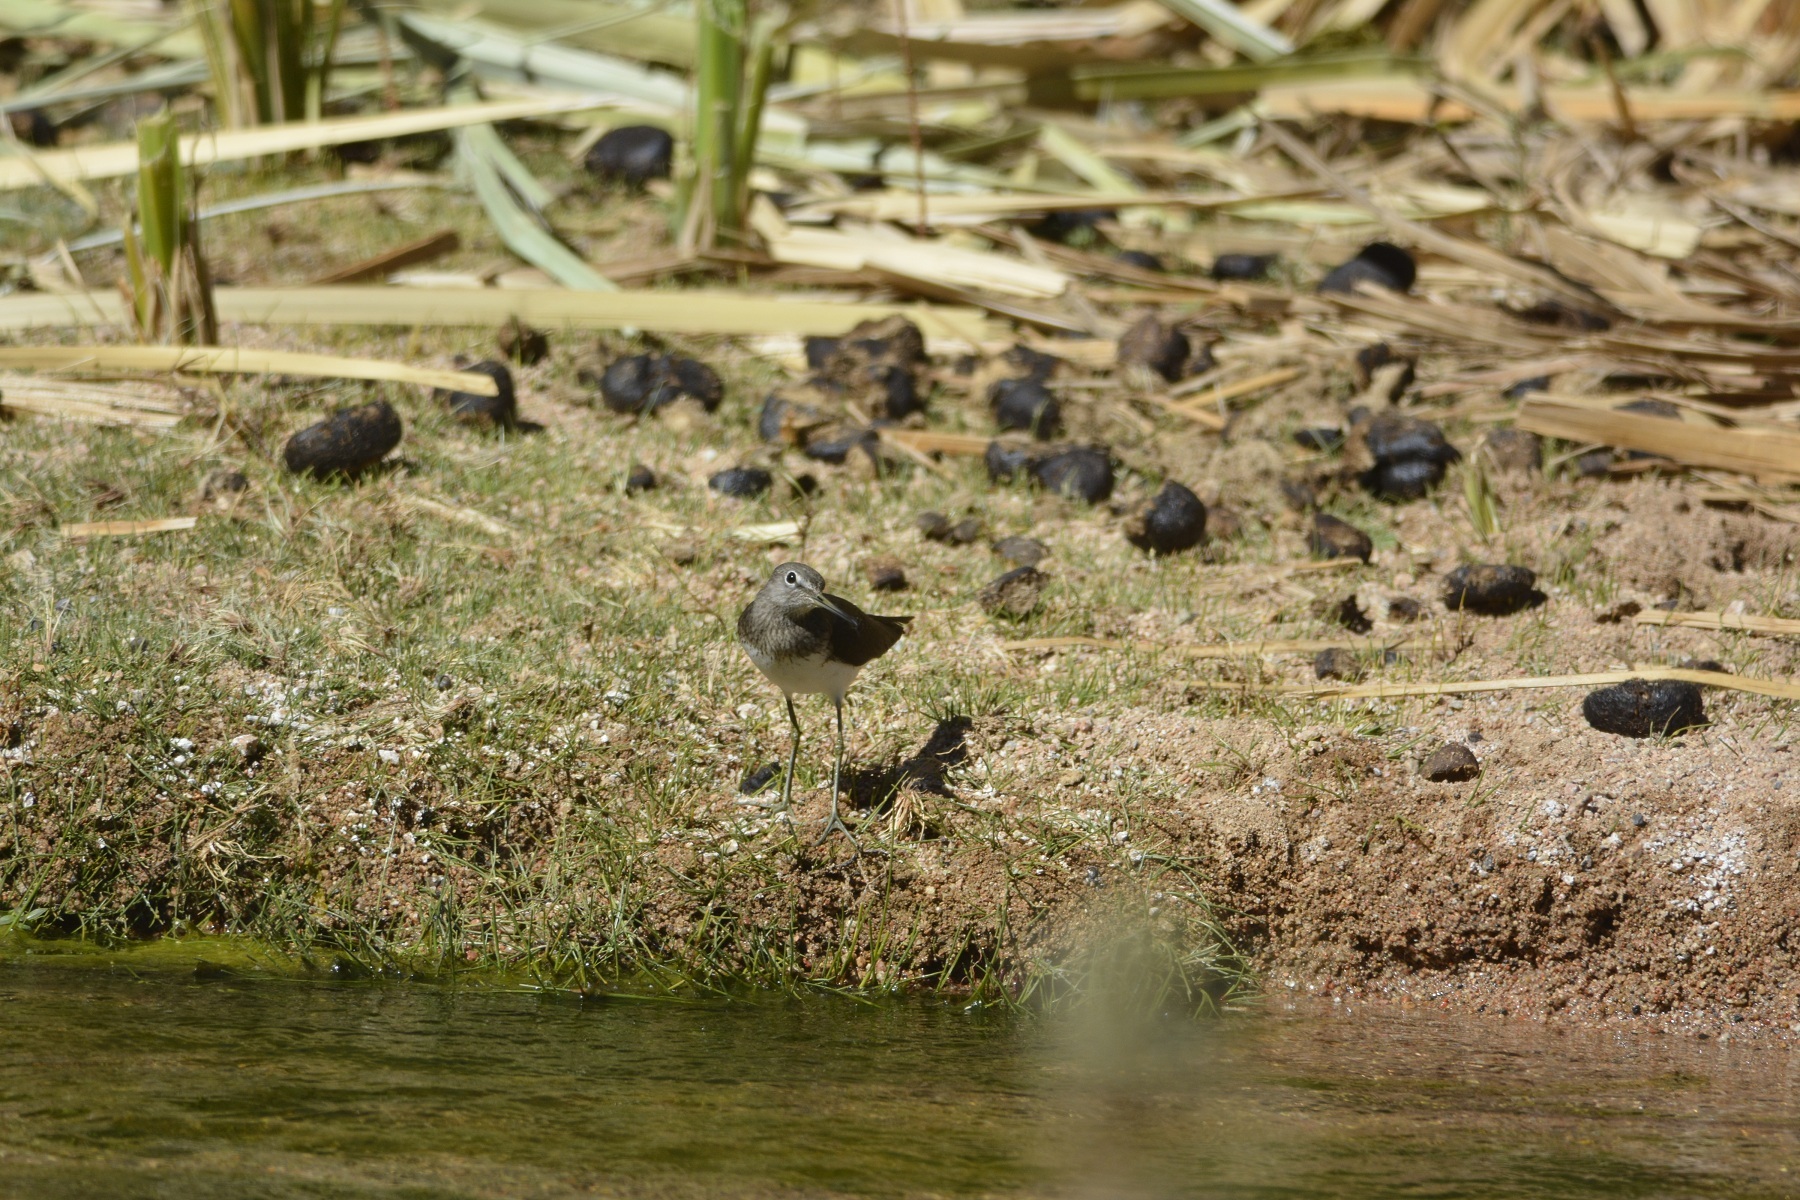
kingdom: Animalia
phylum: Chordata
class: Aves
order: Charadriiformes
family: Scolopacidae
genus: Tringa
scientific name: Tringa ochropus
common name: Green sandpiper
